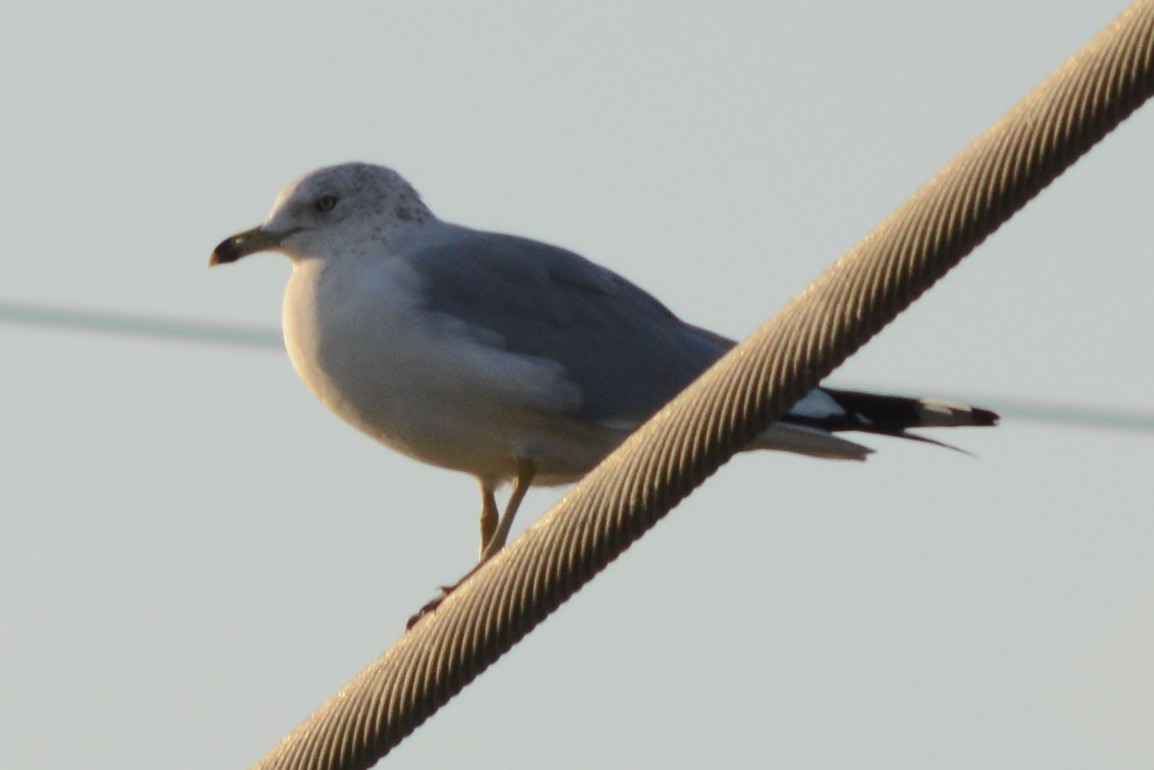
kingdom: Animalia
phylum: Chordata
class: Aves
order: Charadriiformes
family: Laridae
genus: Larus
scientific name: Larus delawarensis
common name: Ring-billed gull
